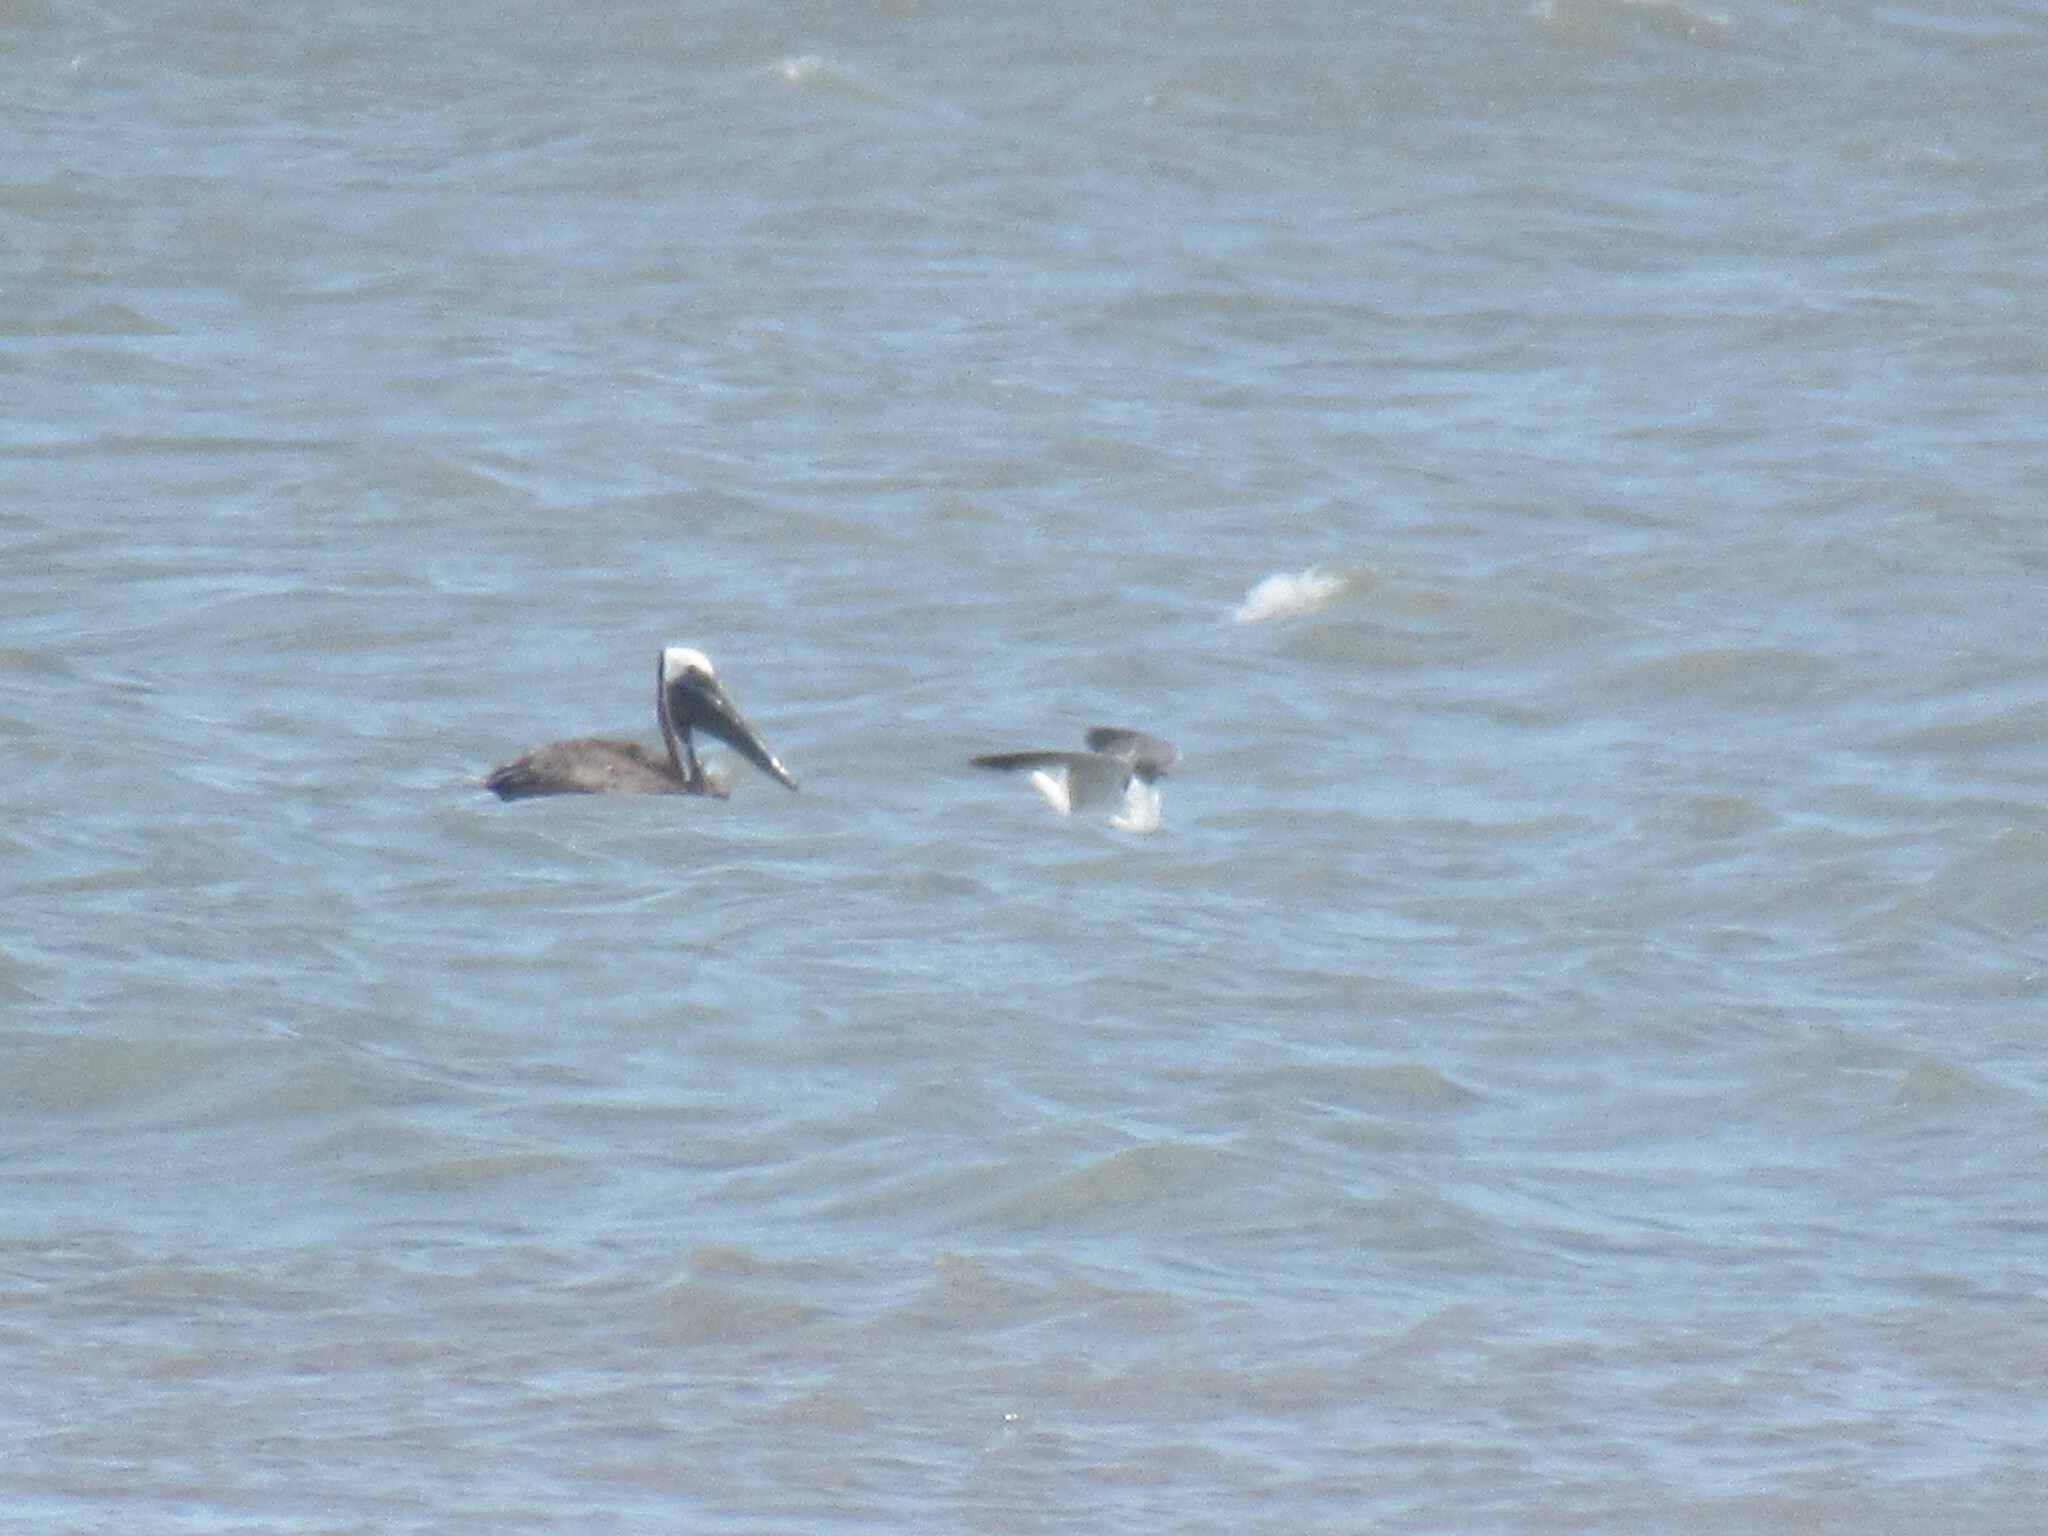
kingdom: Animalia
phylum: Chordata
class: Aves
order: Charadriiformes
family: Laridae
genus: Leucophaeus
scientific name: Leucophaeus atricilla
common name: Laughing gull
